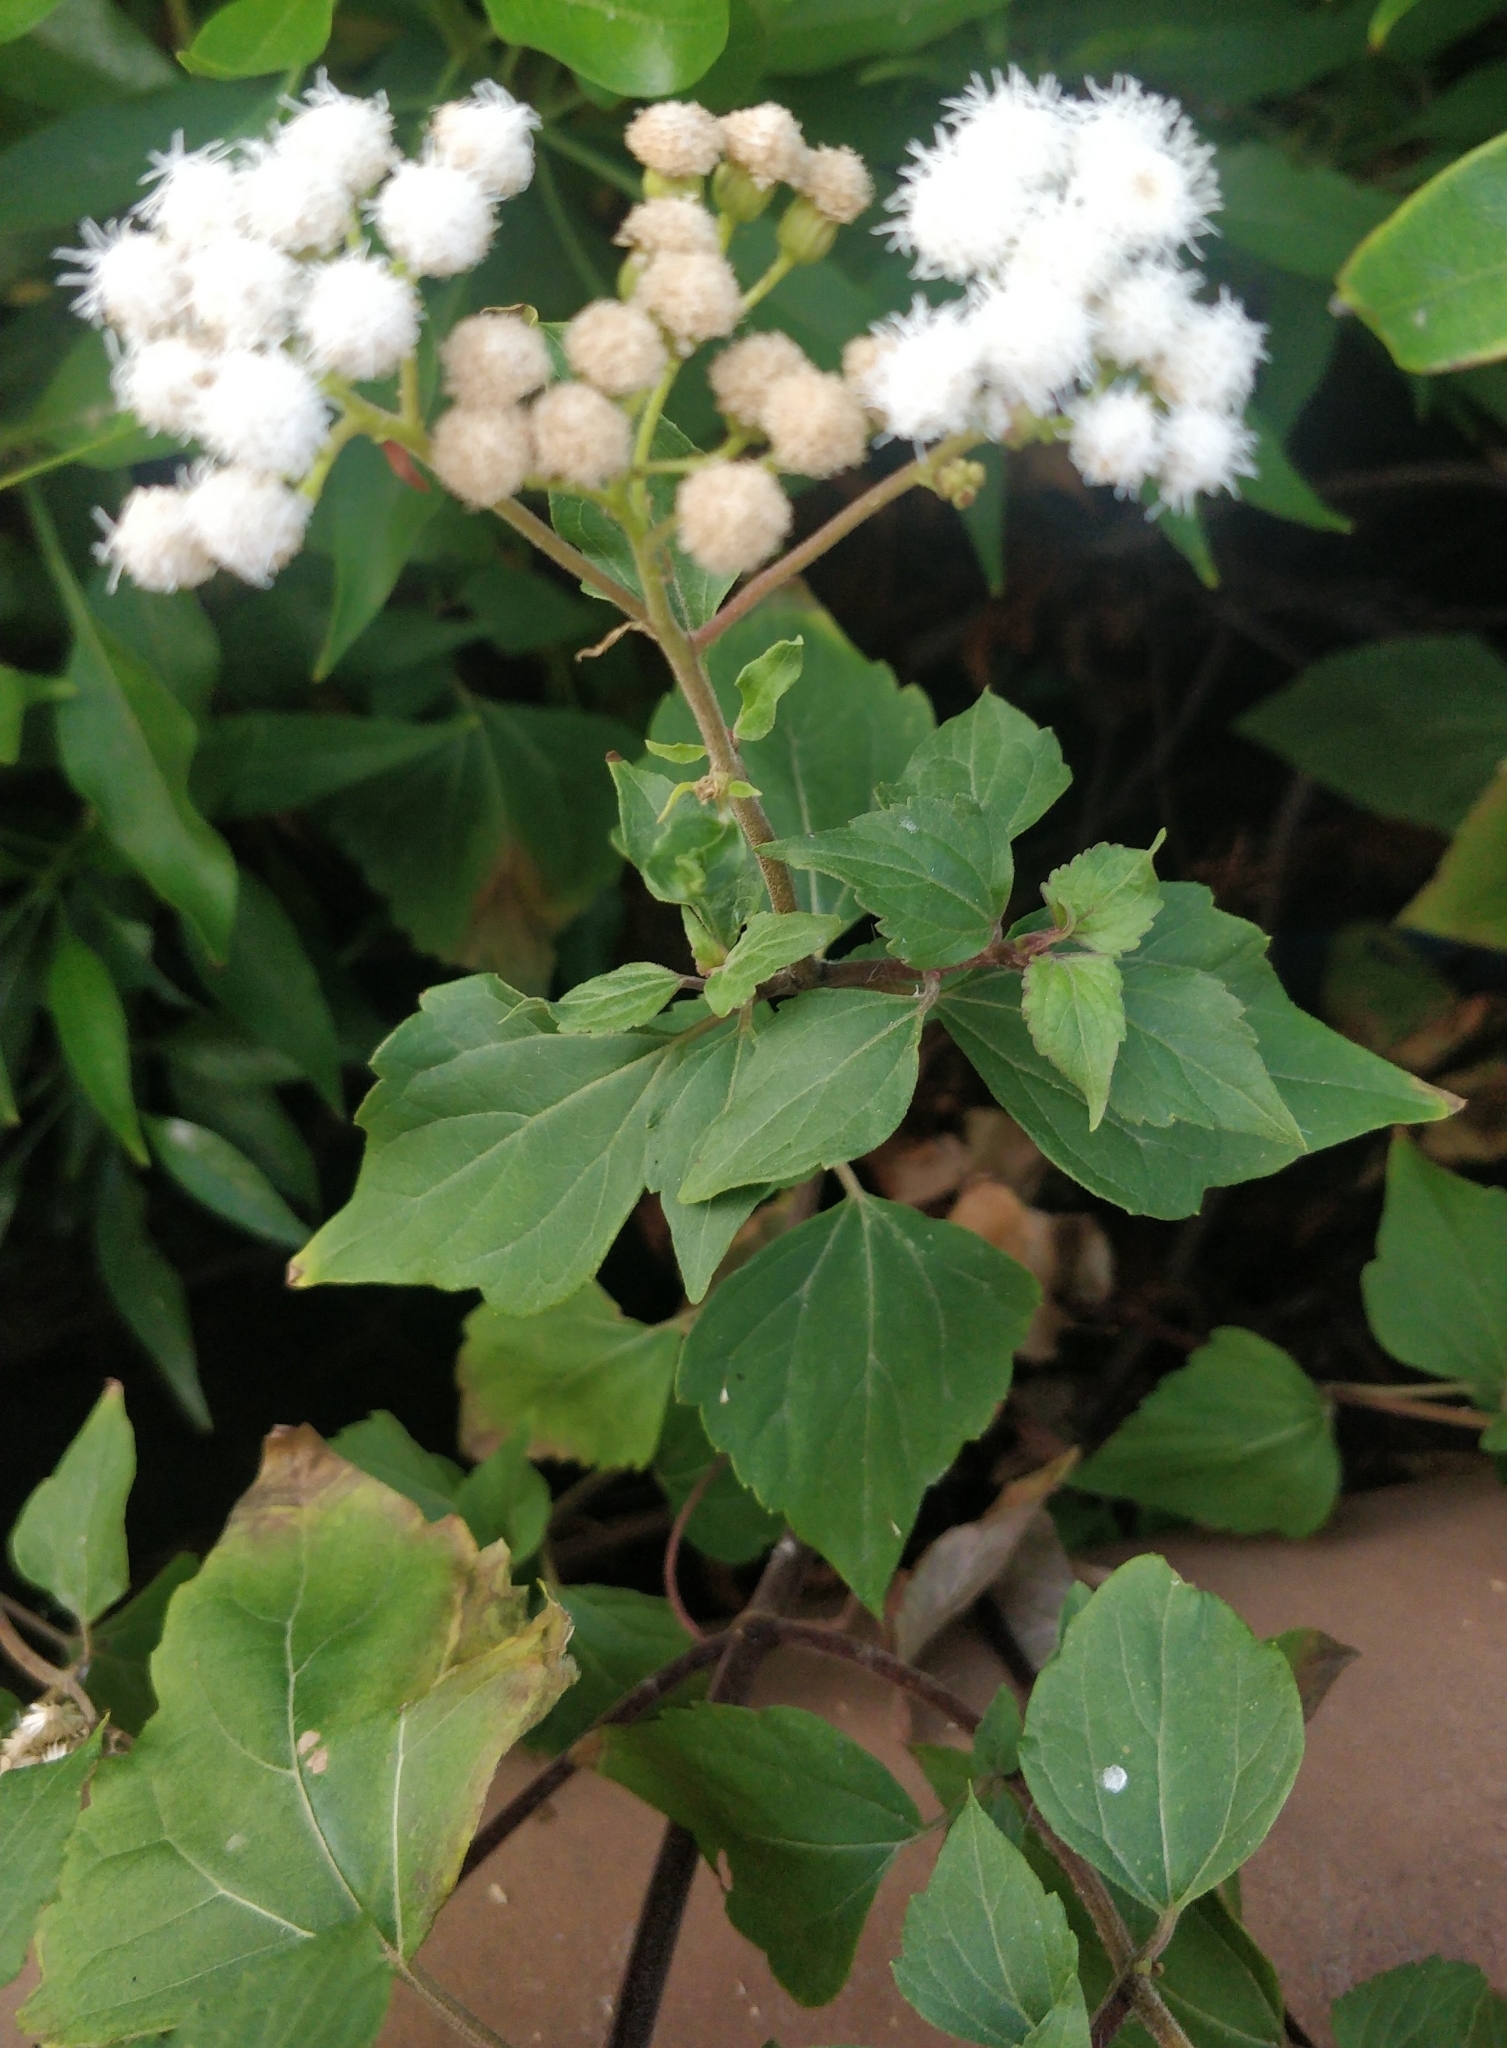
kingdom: Plantae
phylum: Tracheophyta
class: Magnoliopsida
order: Asterales
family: Asteraceae
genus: Ageratina
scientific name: Ageratina adenophora
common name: Sticky snakeroot
